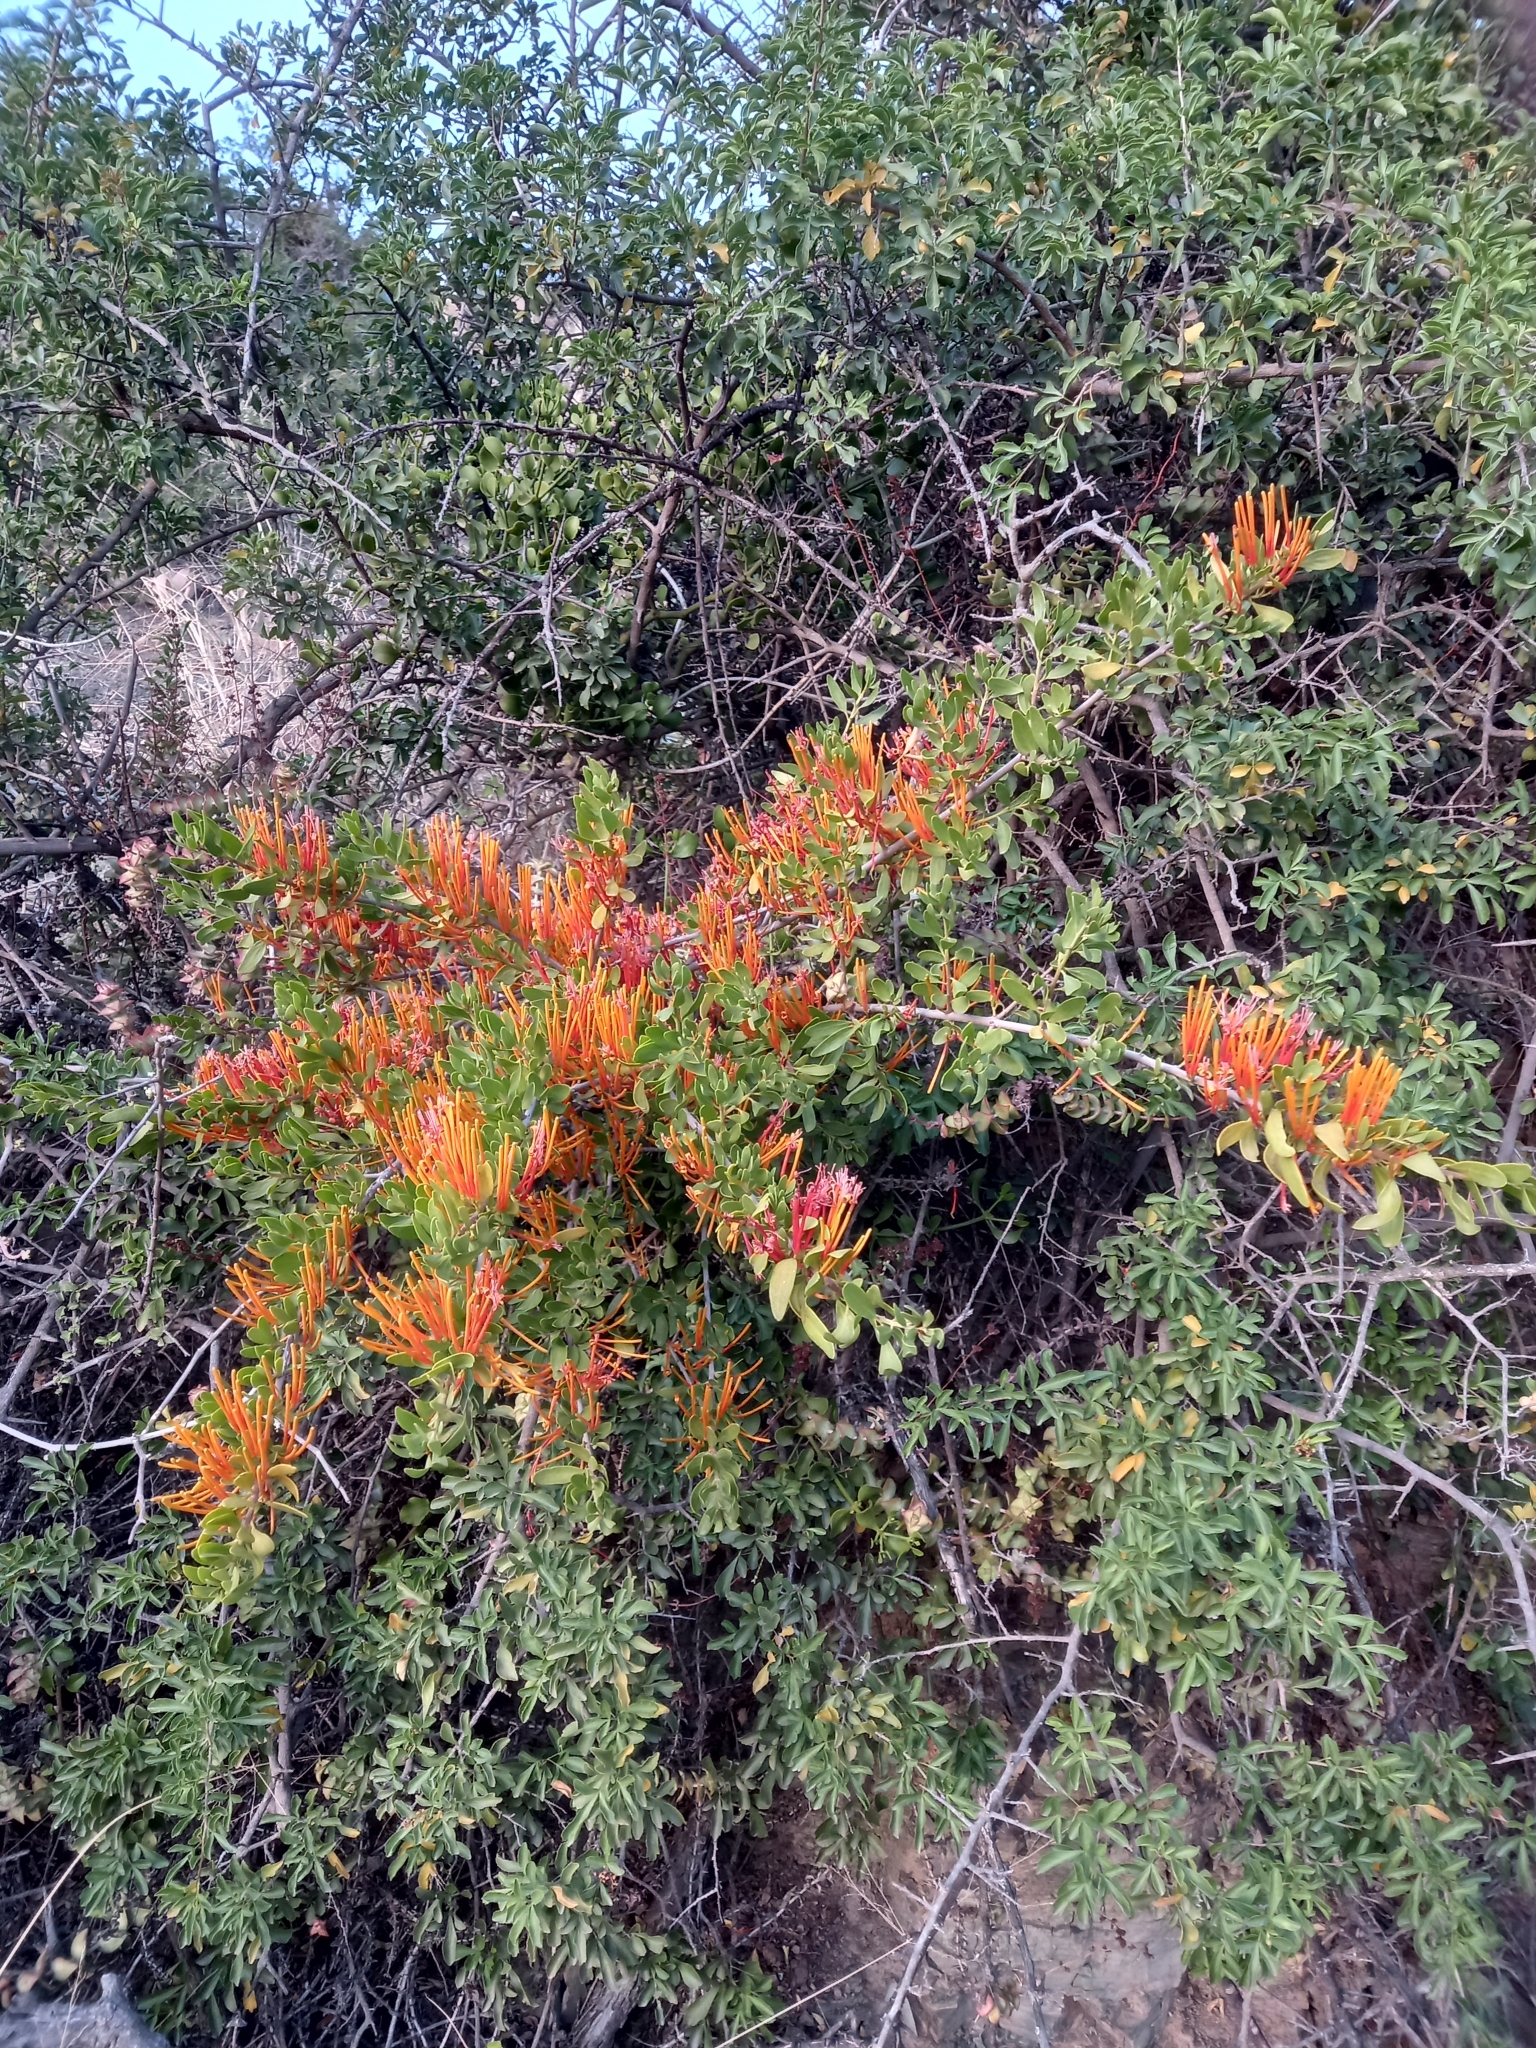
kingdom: Plantae
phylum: Tracheophyta
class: Magnoliopsida
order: Santalales
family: Loranthaceae
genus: Moquiniella
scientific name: Moquiniella rubra
